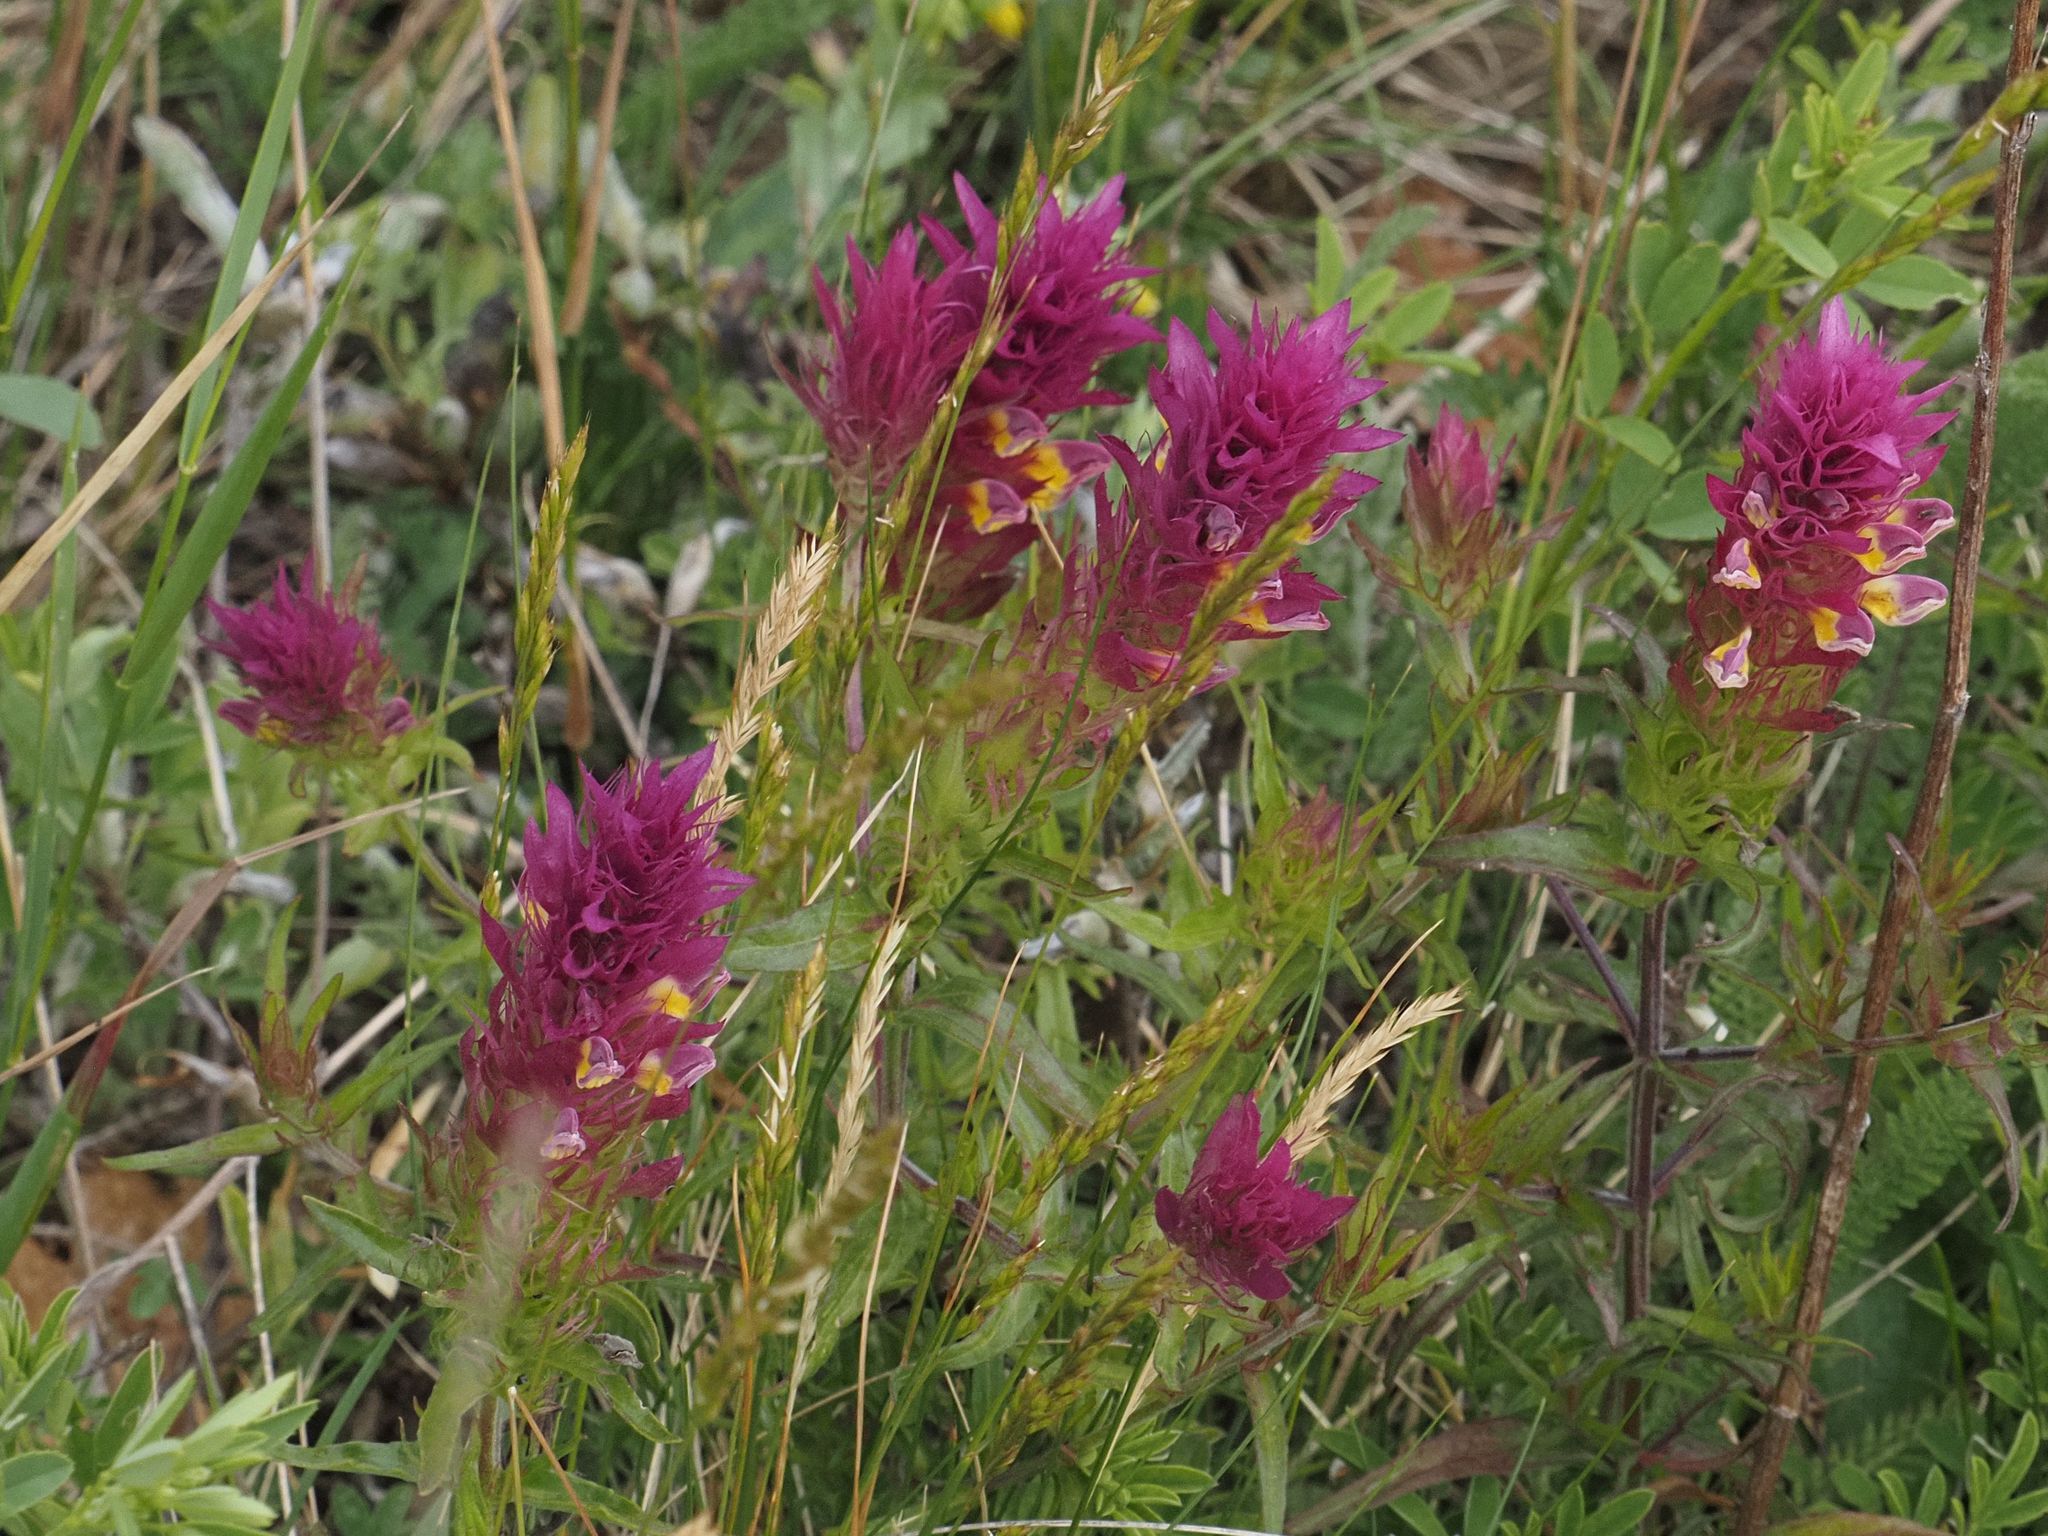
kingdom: Plantae
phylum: Tracheophyta
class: Magnoliopsida
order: Lamiales
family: Orobanchaceae
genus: Melampyrum
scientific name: Melampyrum arvense
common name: Field cow-wheat
